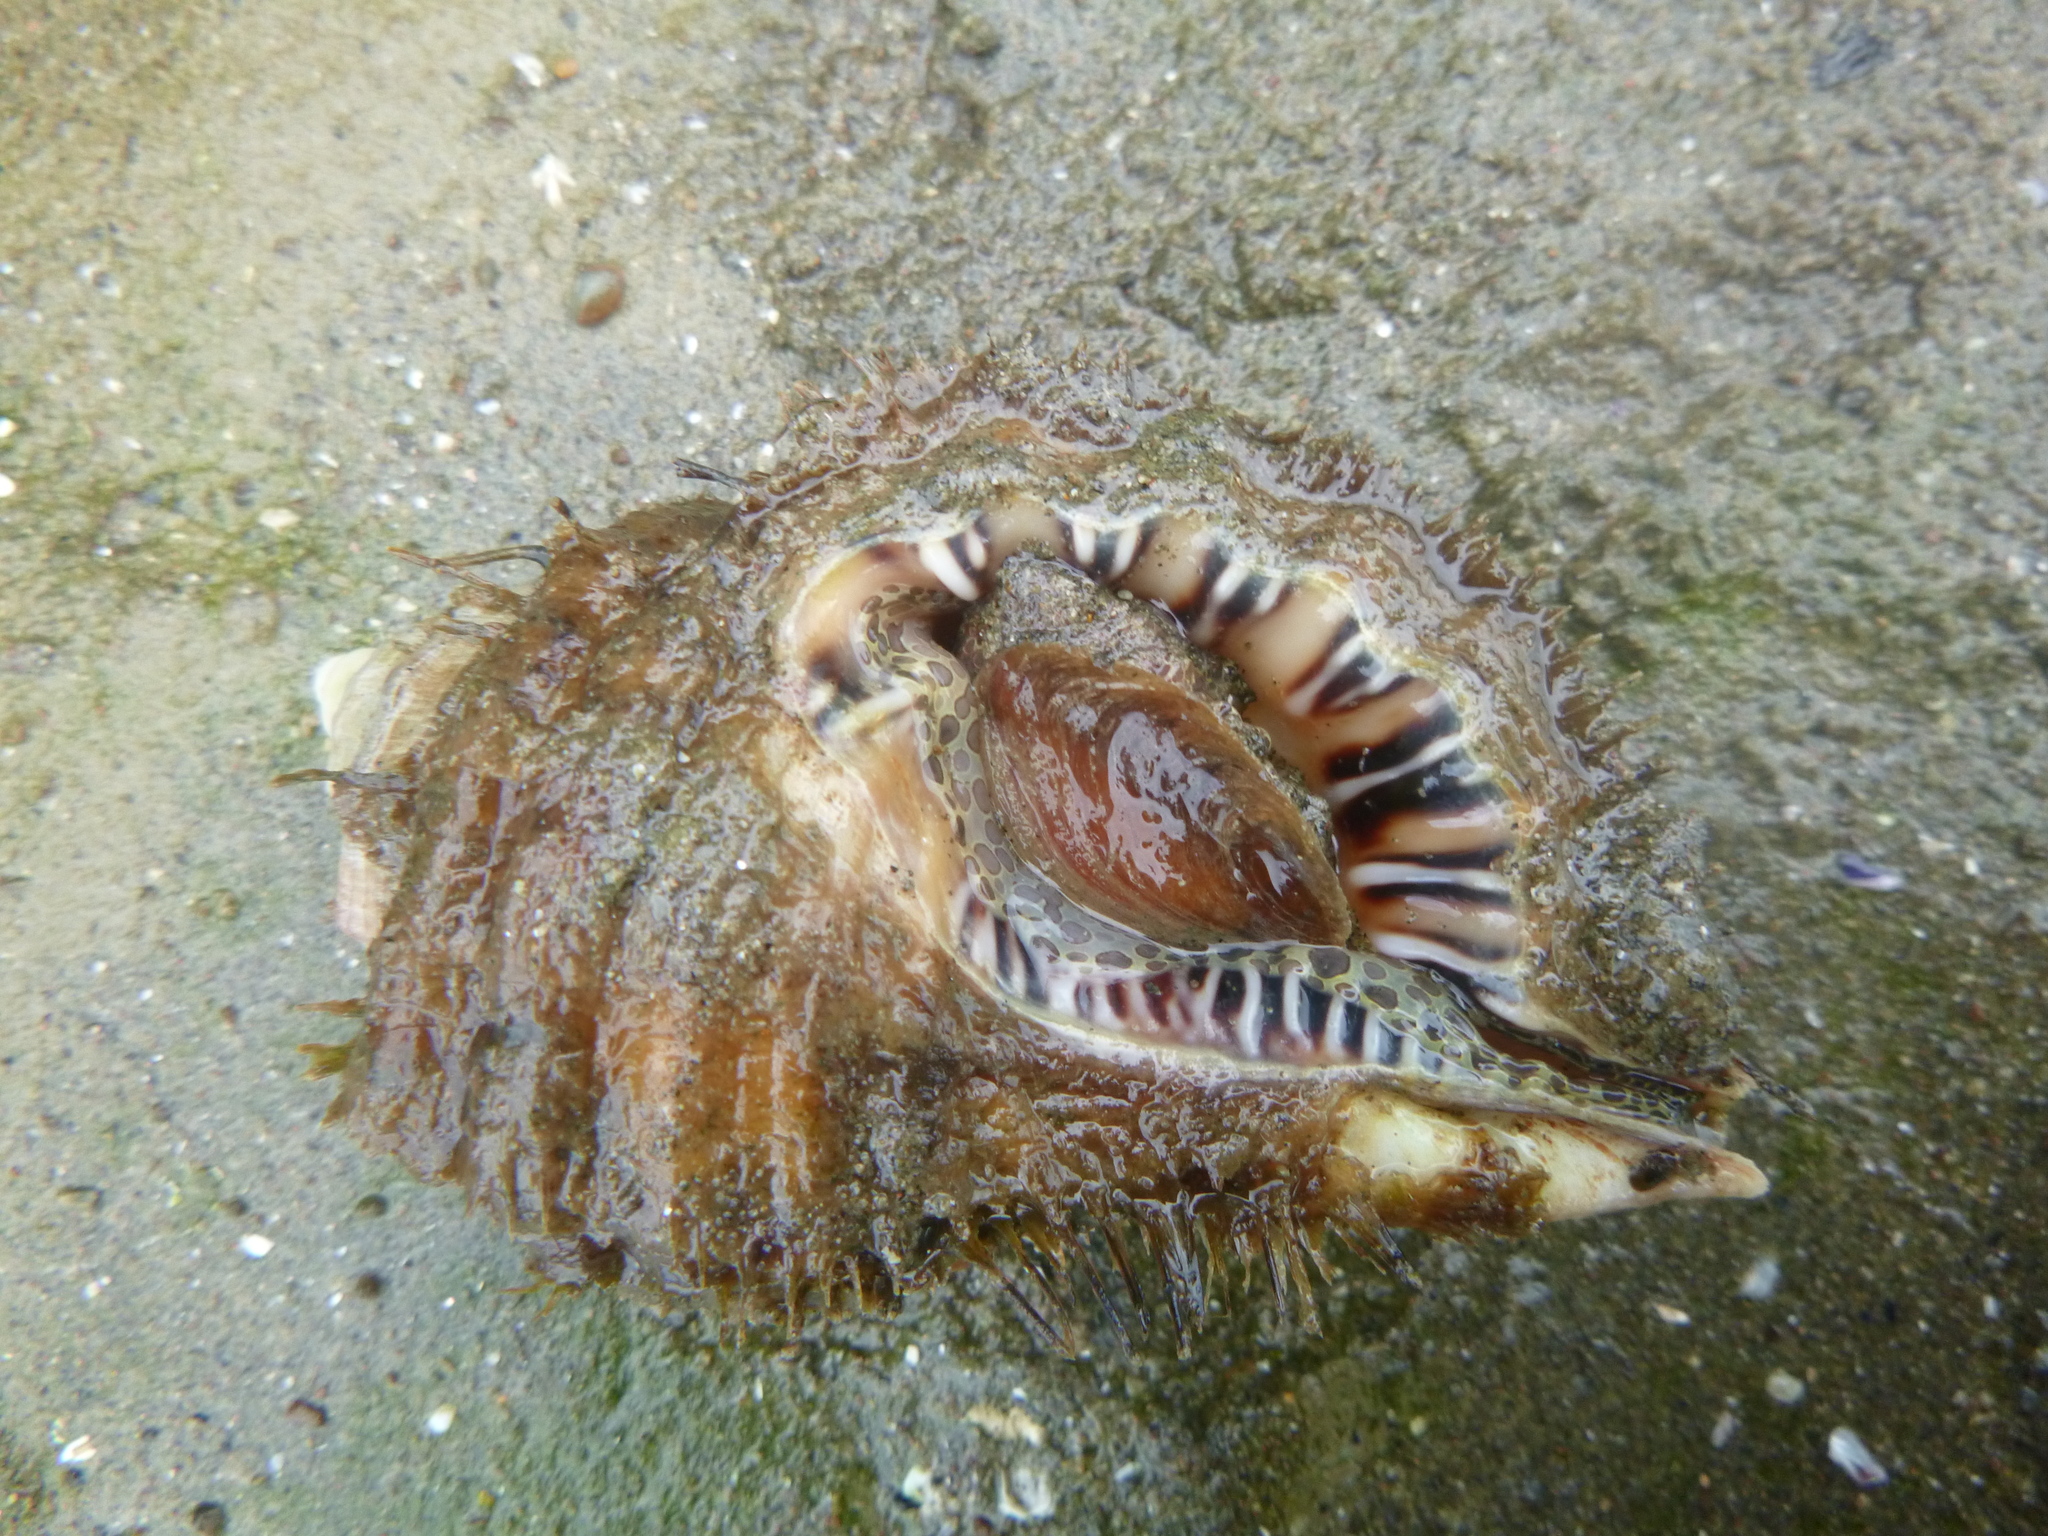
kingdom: Animalia
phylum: Mollusca
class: Gastropoda
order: Littorinimorpha
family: Cymatiidae
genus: Monoplex
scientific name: Monoplex parthenopeus
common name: Giant triton
